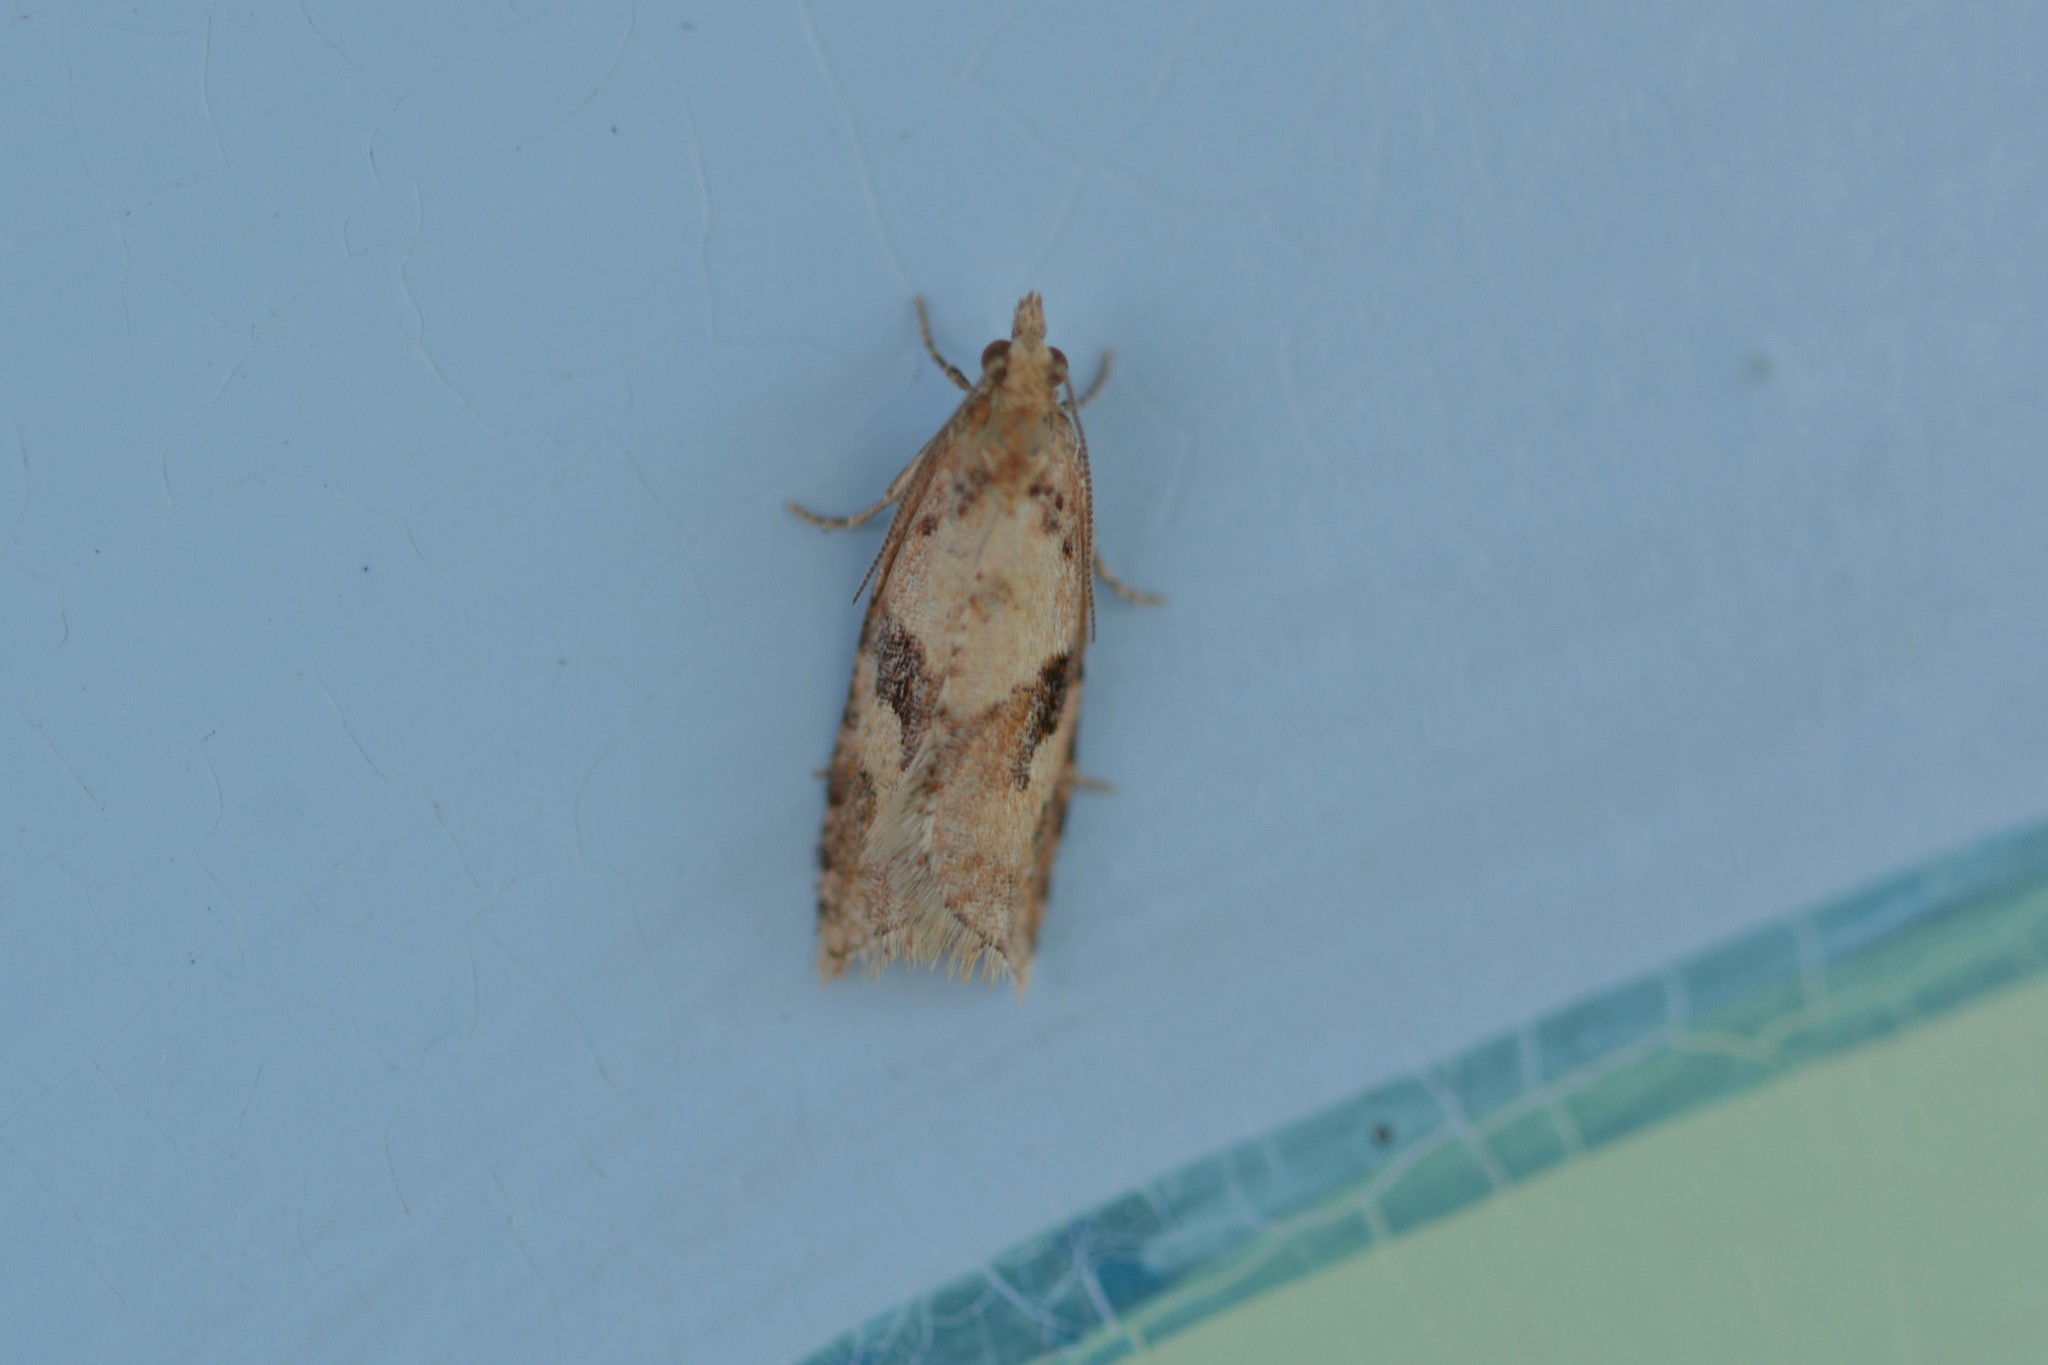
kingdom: Animalia
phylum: Arthropoda
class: Insecta
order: Lepidoptera
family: Tortricidae
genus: Capua
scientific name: Capua semiferana
